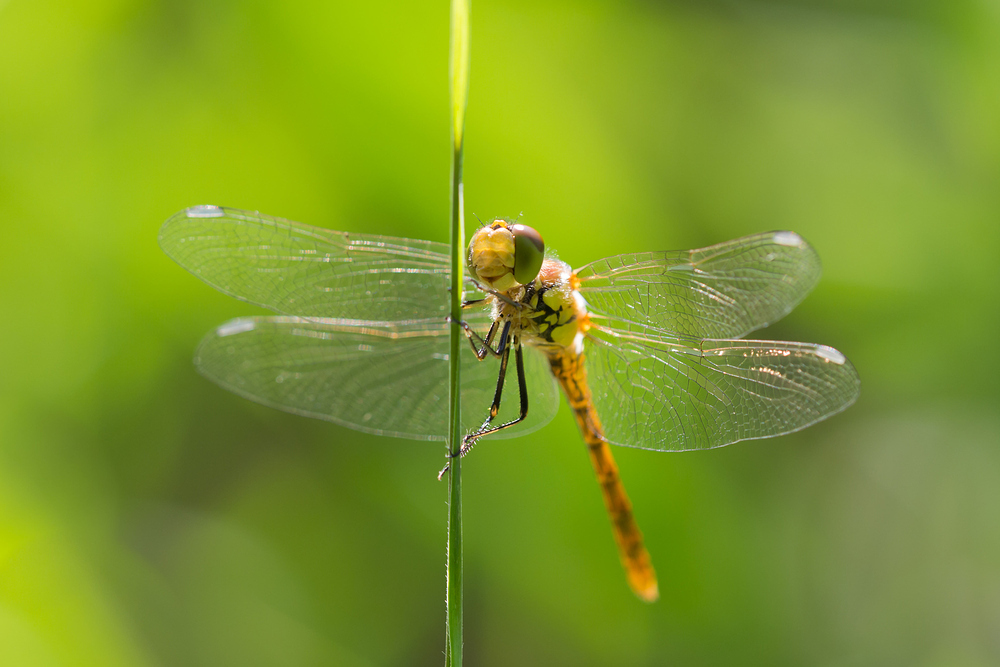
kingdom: Animalia
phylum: Arthropoda
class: Insecta
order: Odonata
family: Libellulidae
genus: Sympetrum
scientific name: Sympetrum striolatum
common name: Common darter
